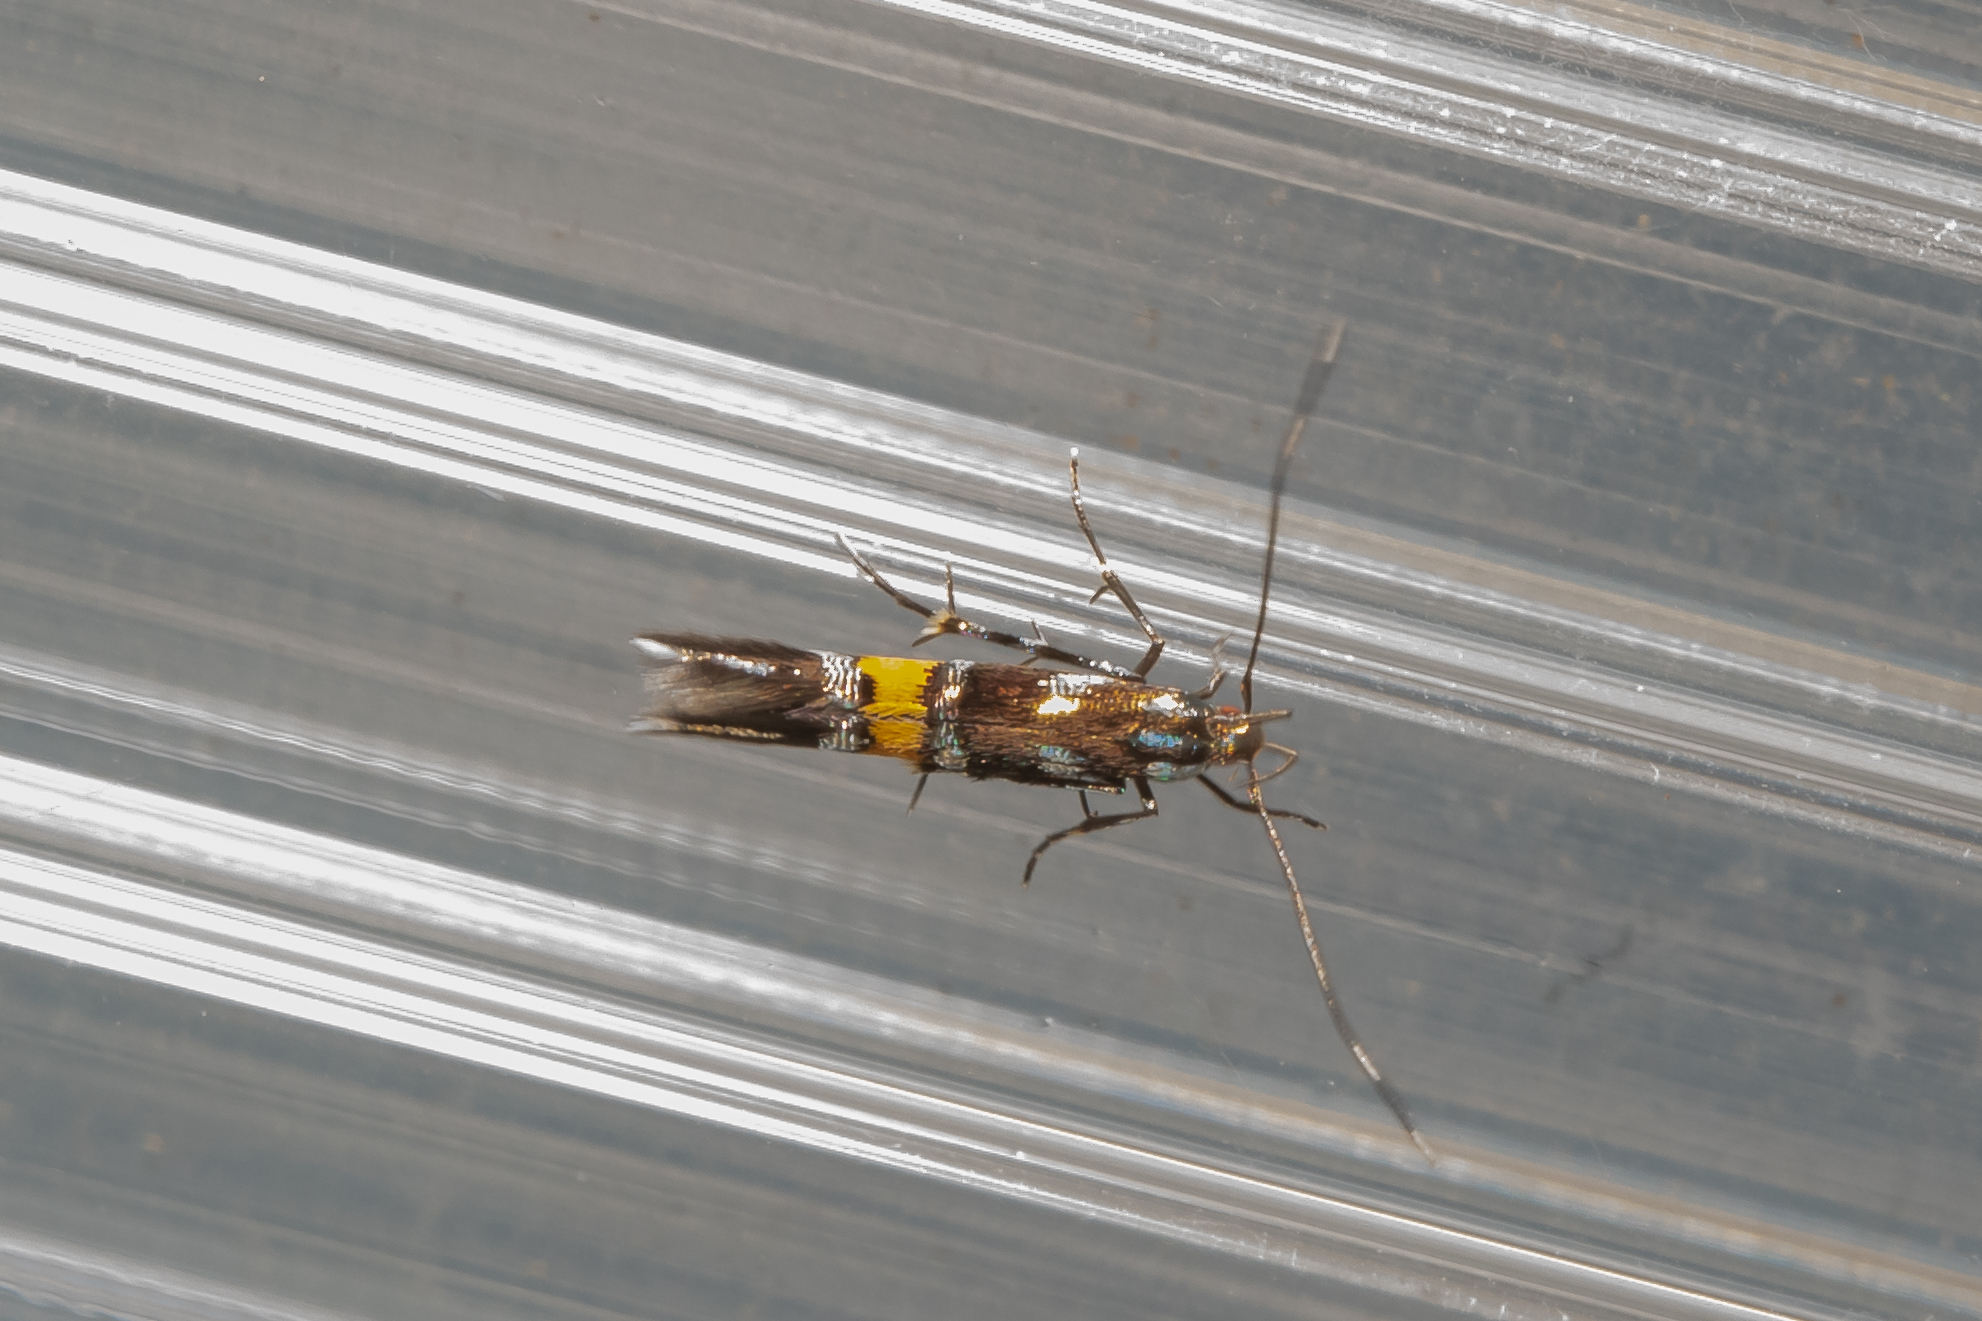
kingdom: Animalia
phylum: Arthropoda
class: Insecta
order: Lepidoptera
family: Cosmopterigidae
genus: Cosmopterix
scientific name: Cosmopterix schmidiella
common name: Vivid cosmet
